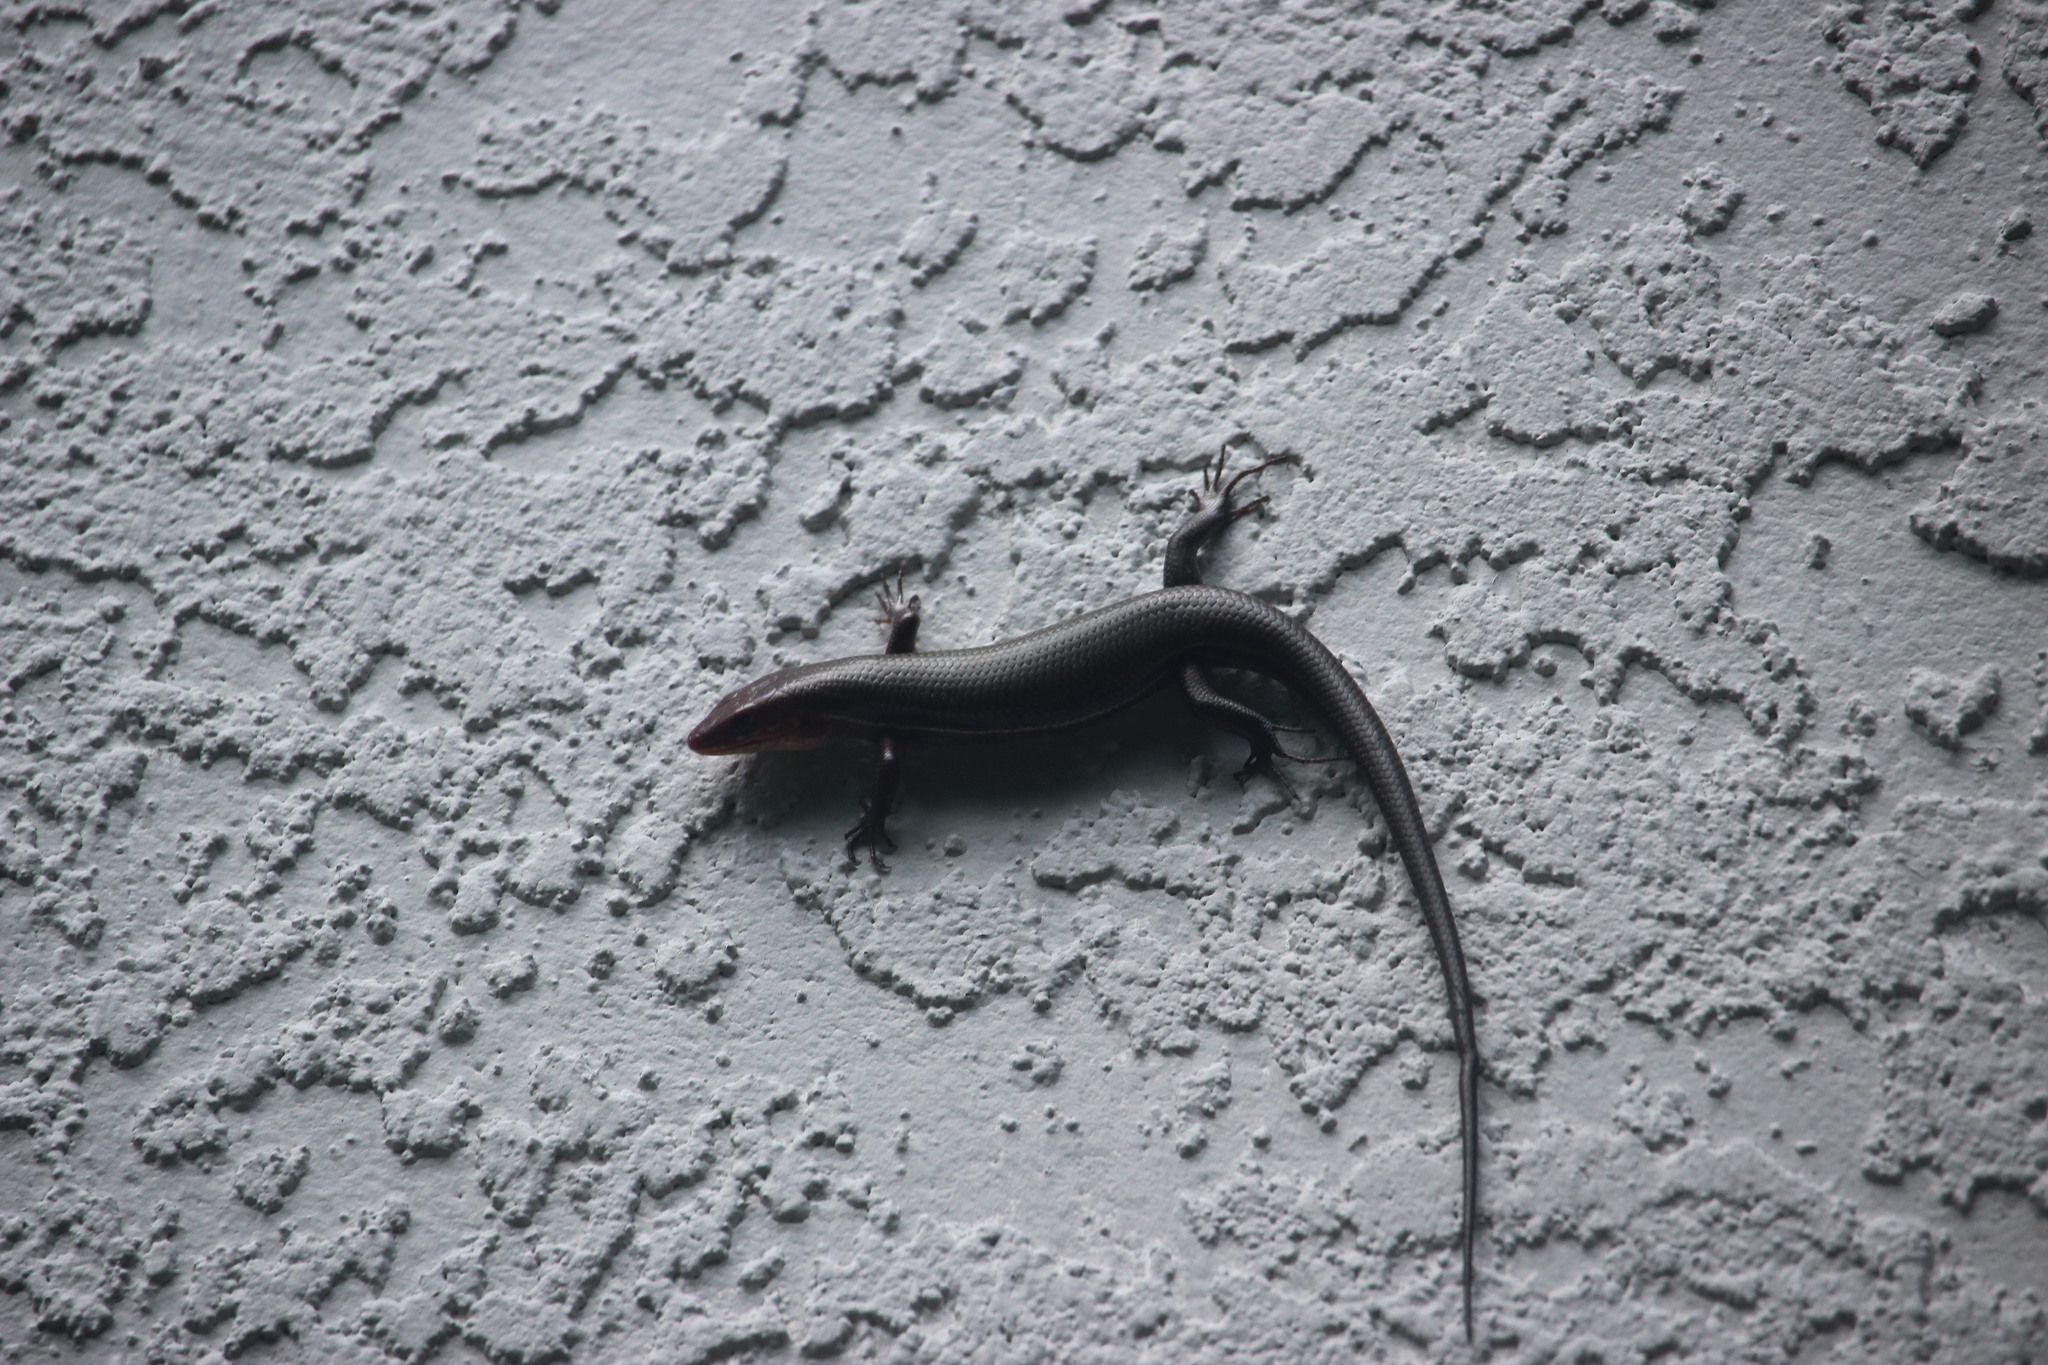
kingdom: Animalia
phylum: Chordata
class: Squamata
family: Scincidae
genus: Plestiodon
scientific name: Plestiodon inexpectatus
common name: Southeastern five-lined skink
